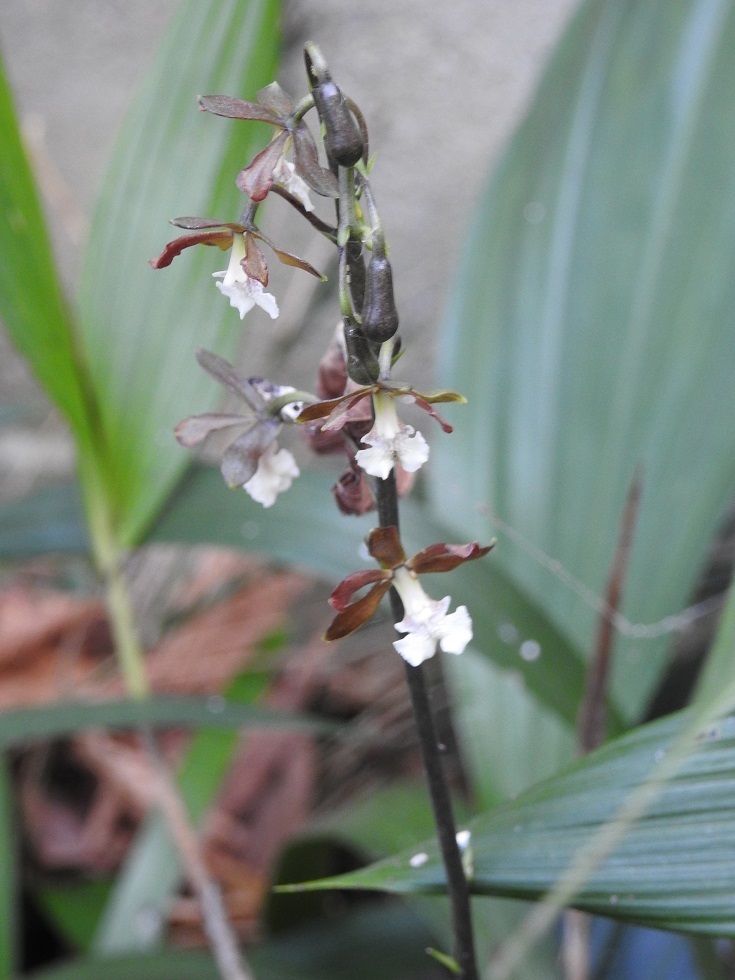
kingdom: Plantae
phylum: Tracheophyta
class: Liliopsida
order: Asparagales
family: Orchidaceae
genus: Prosthechea
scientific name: Prosthechea varicosa
